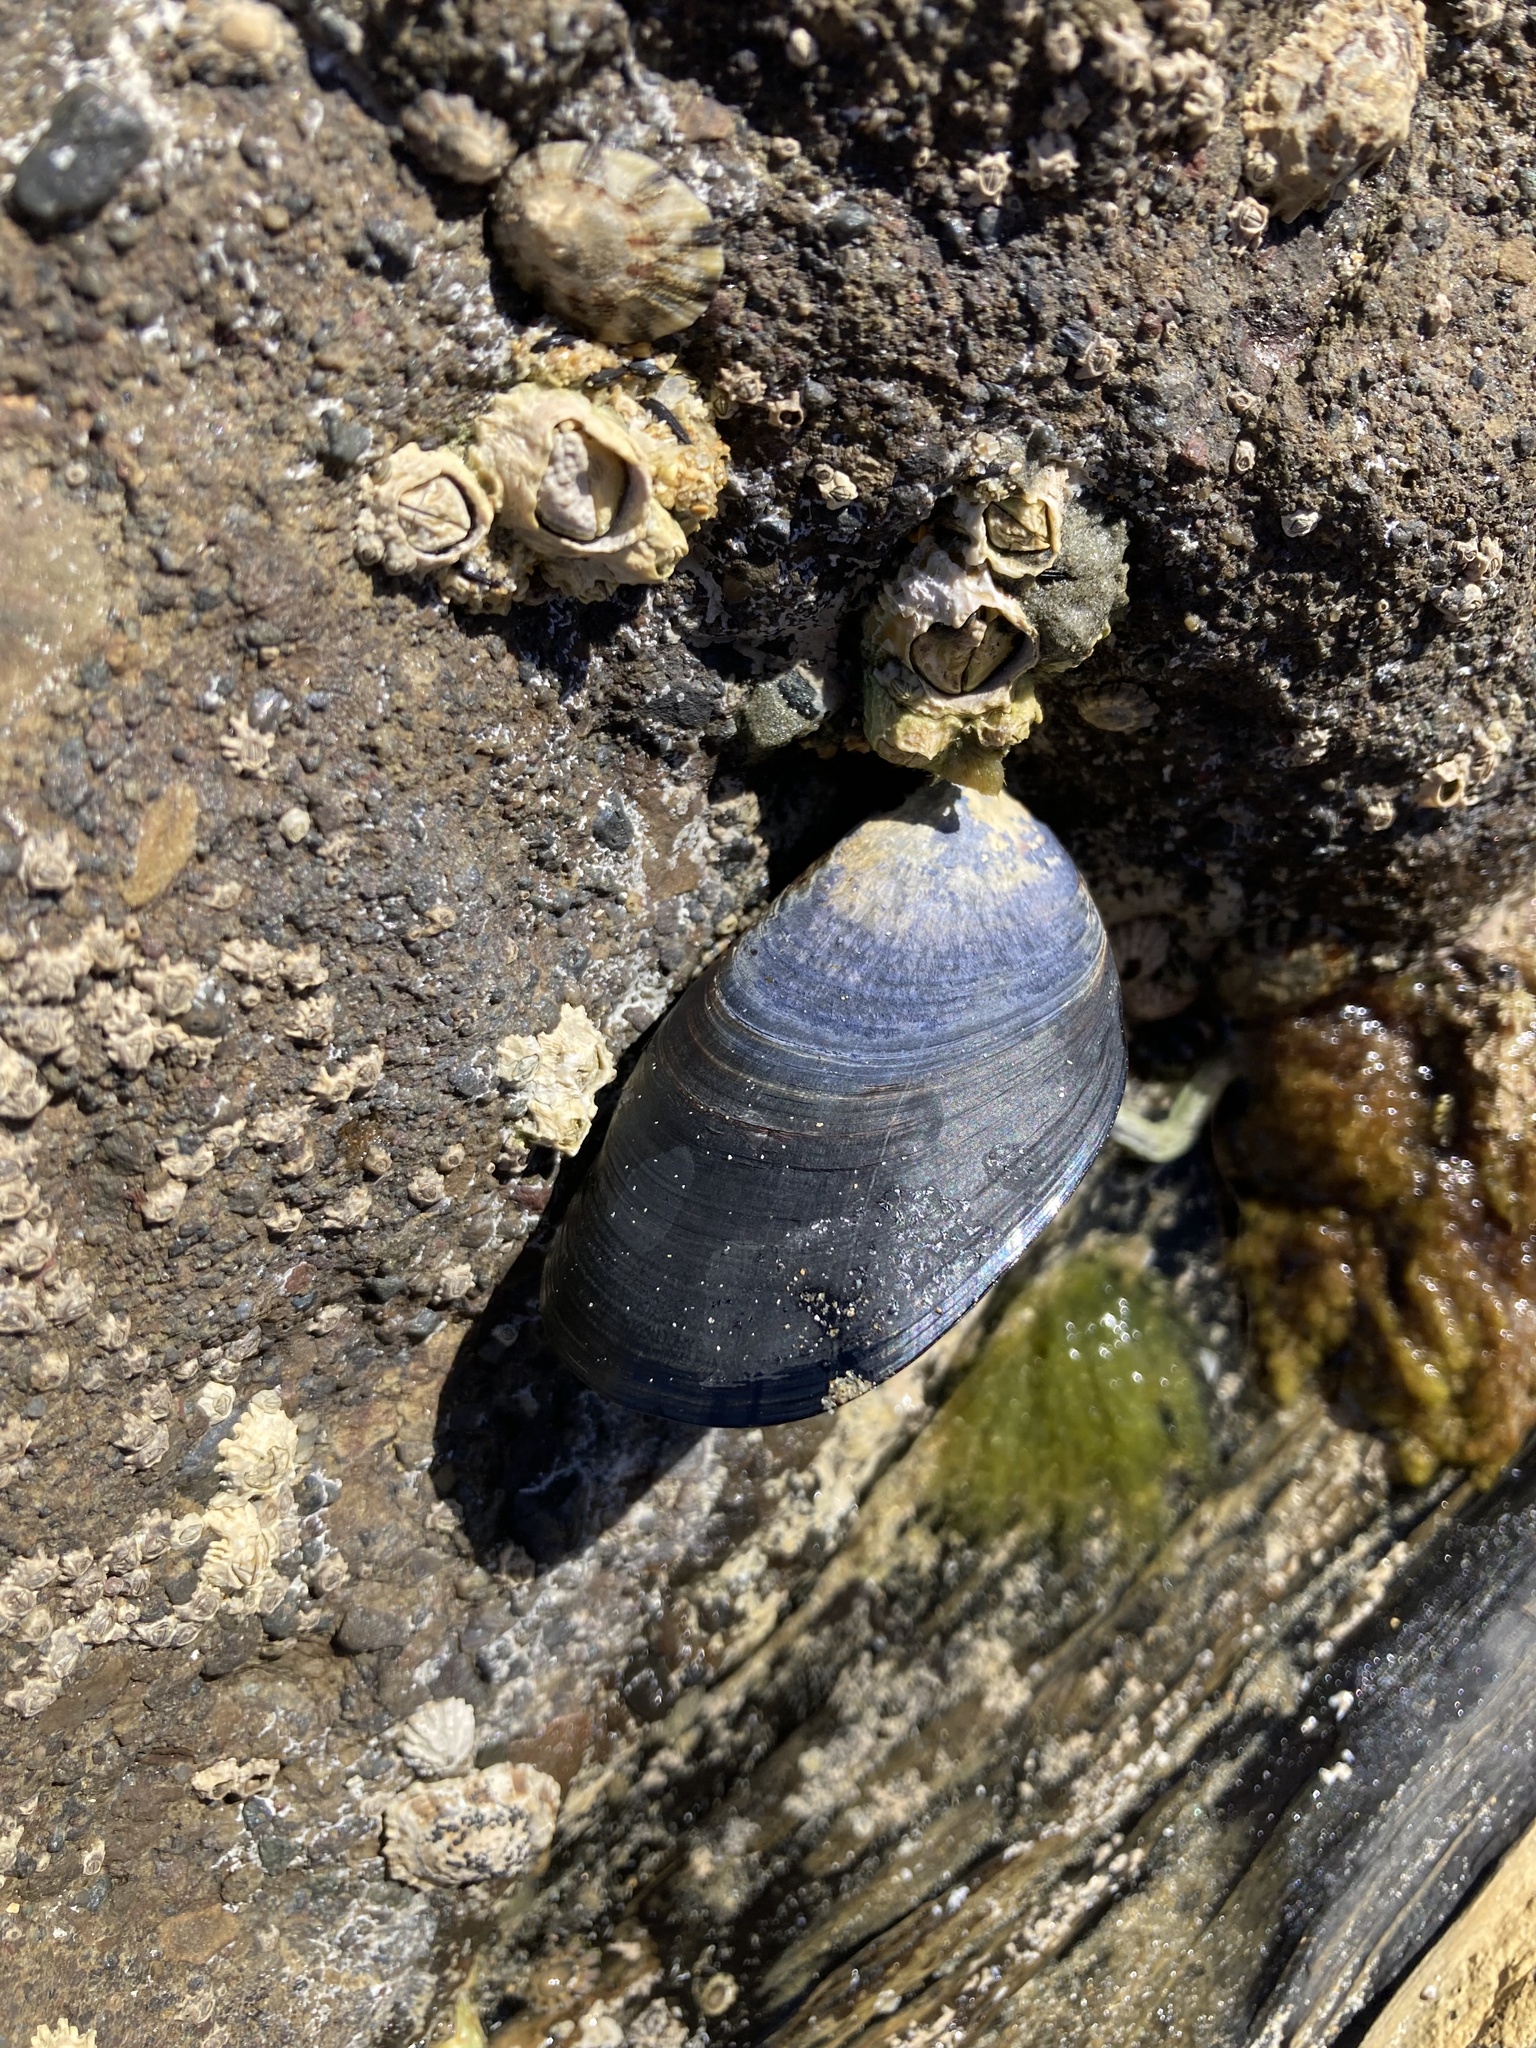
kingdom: Animalia
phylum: Mollusca
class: Bivalvia
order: Mytilida
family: Mytilidae
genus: Mytilus
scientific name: Mytilus planulatus
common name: Australian mussel
